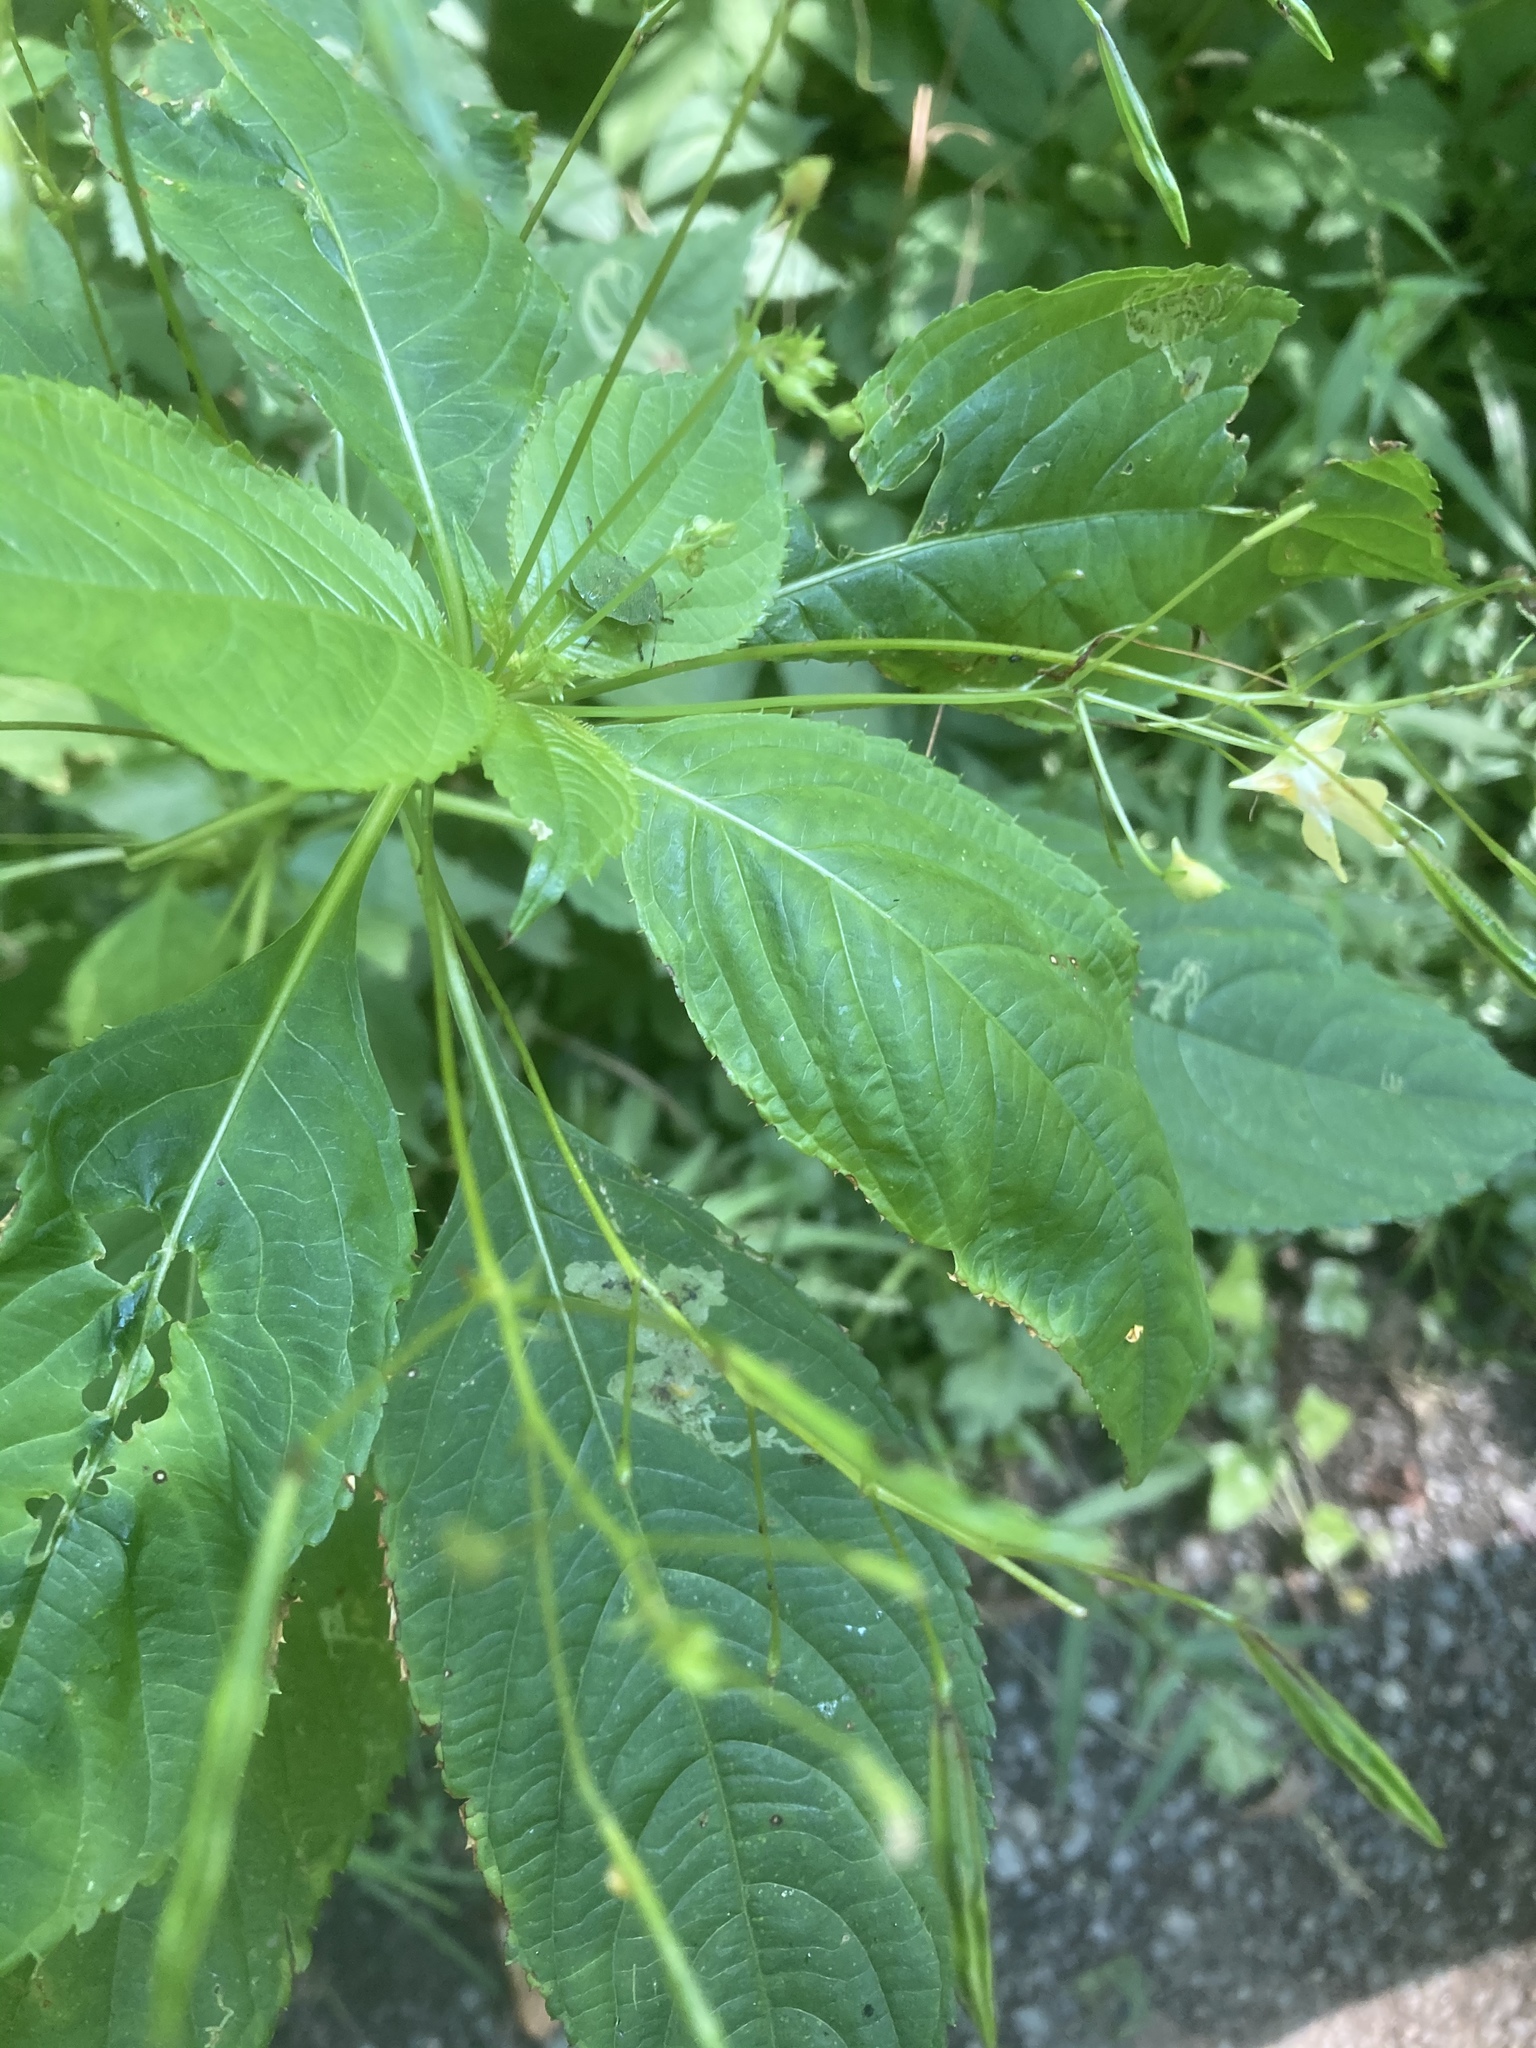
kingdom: Plantae
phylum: Tracheophyta
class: Magnoliopsida
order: Ericales
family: Balsaminaceae
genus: Impatiens
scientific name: Impatiens parviflora
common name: Small balsam
